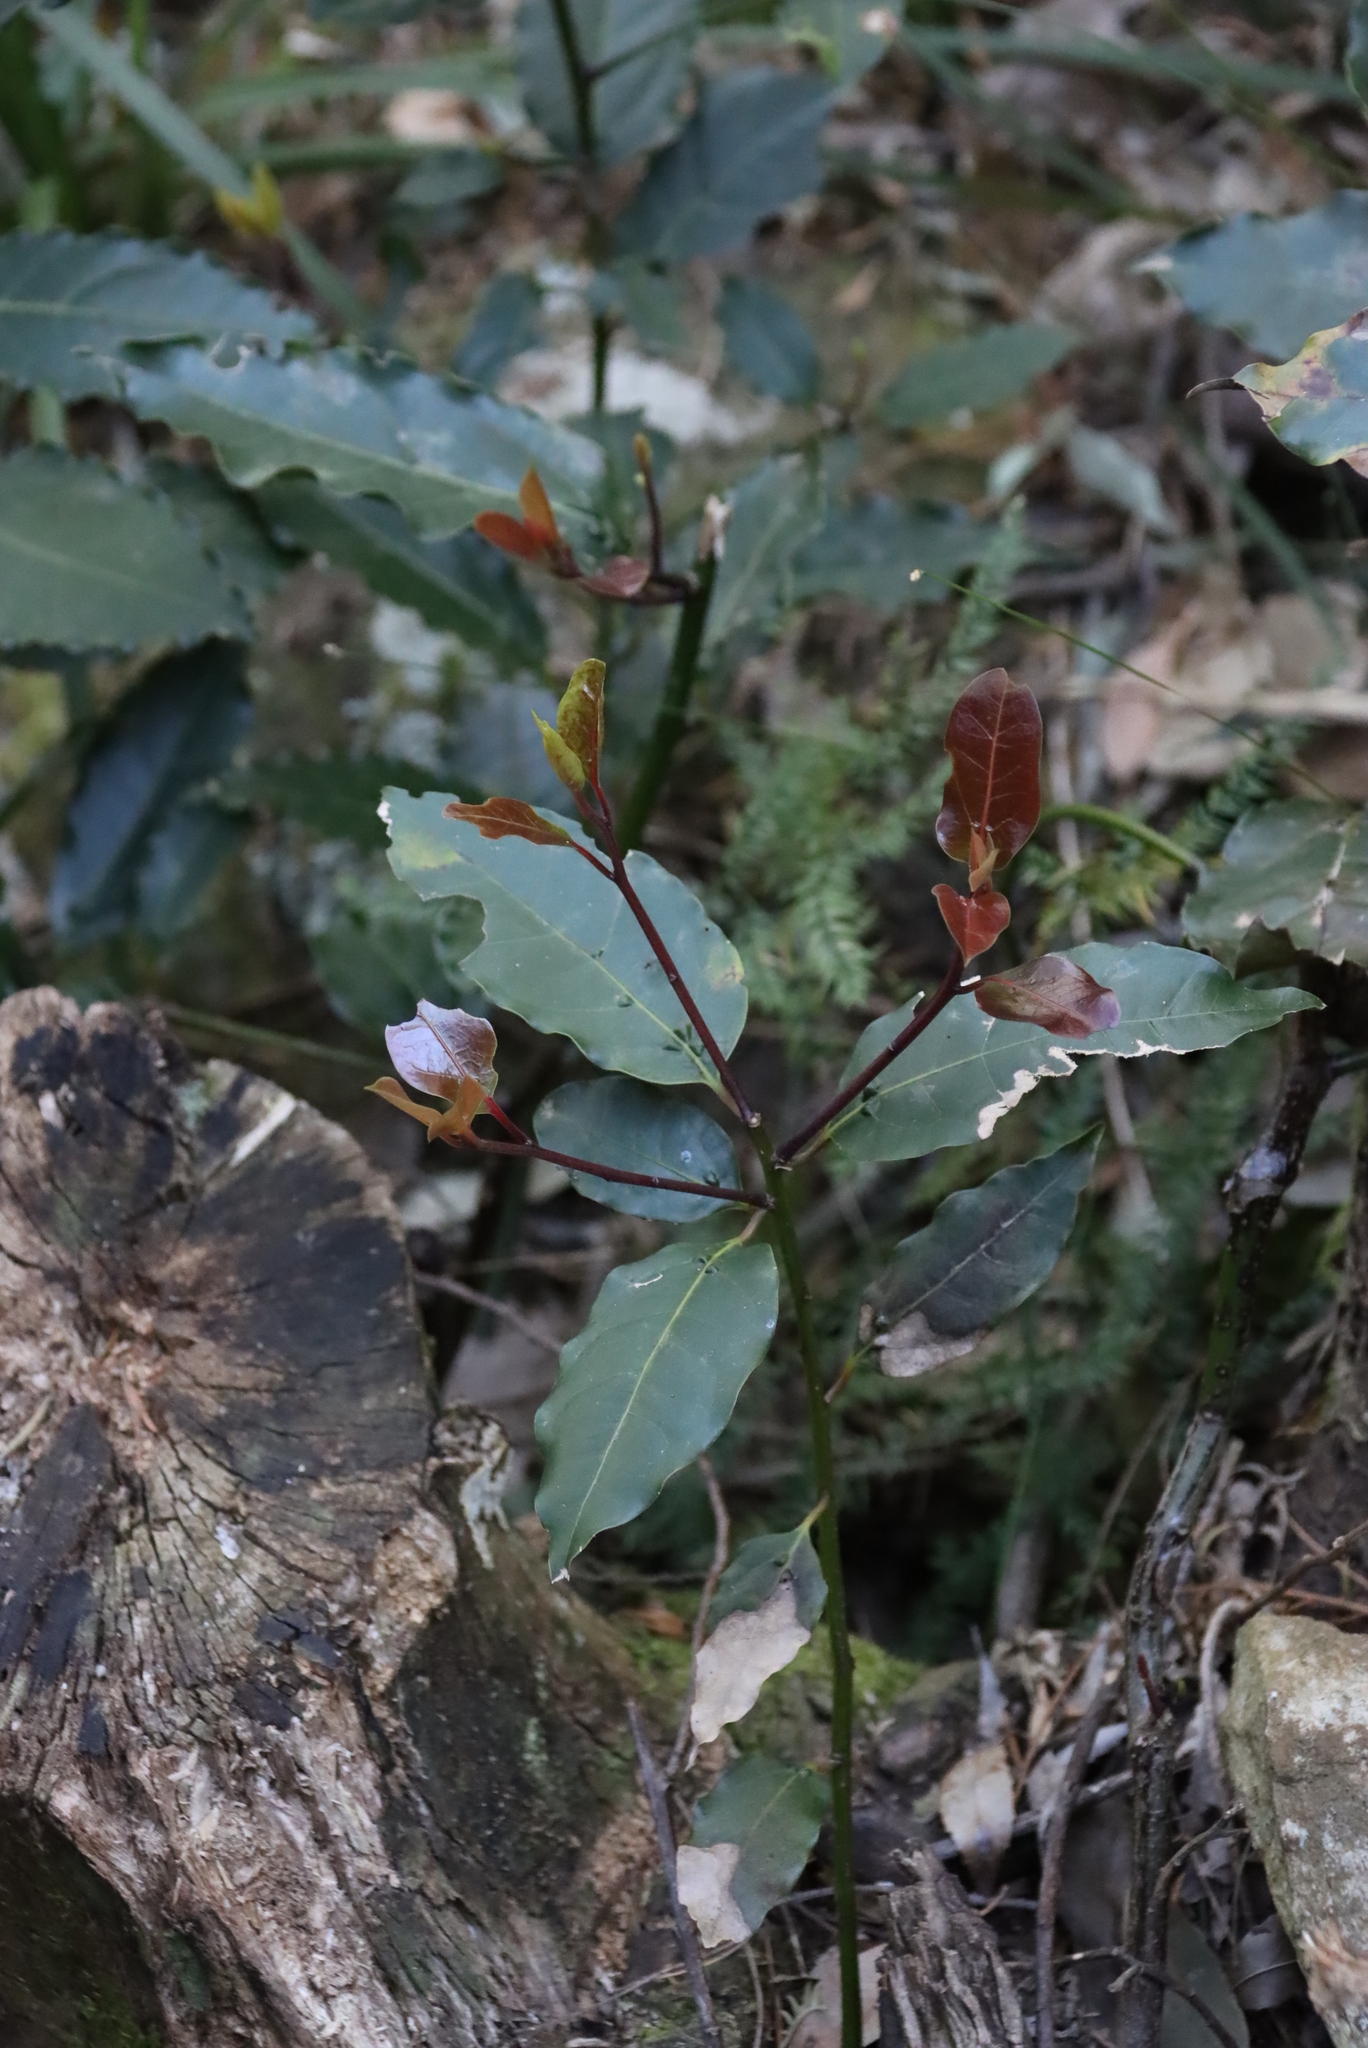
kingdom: Plantae
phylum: Tracheophyta
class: Magnoliopsida
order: Laurales
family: Lauraceae
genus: Ocotea
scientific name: Ocotea bullata
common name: Black stinkwood
